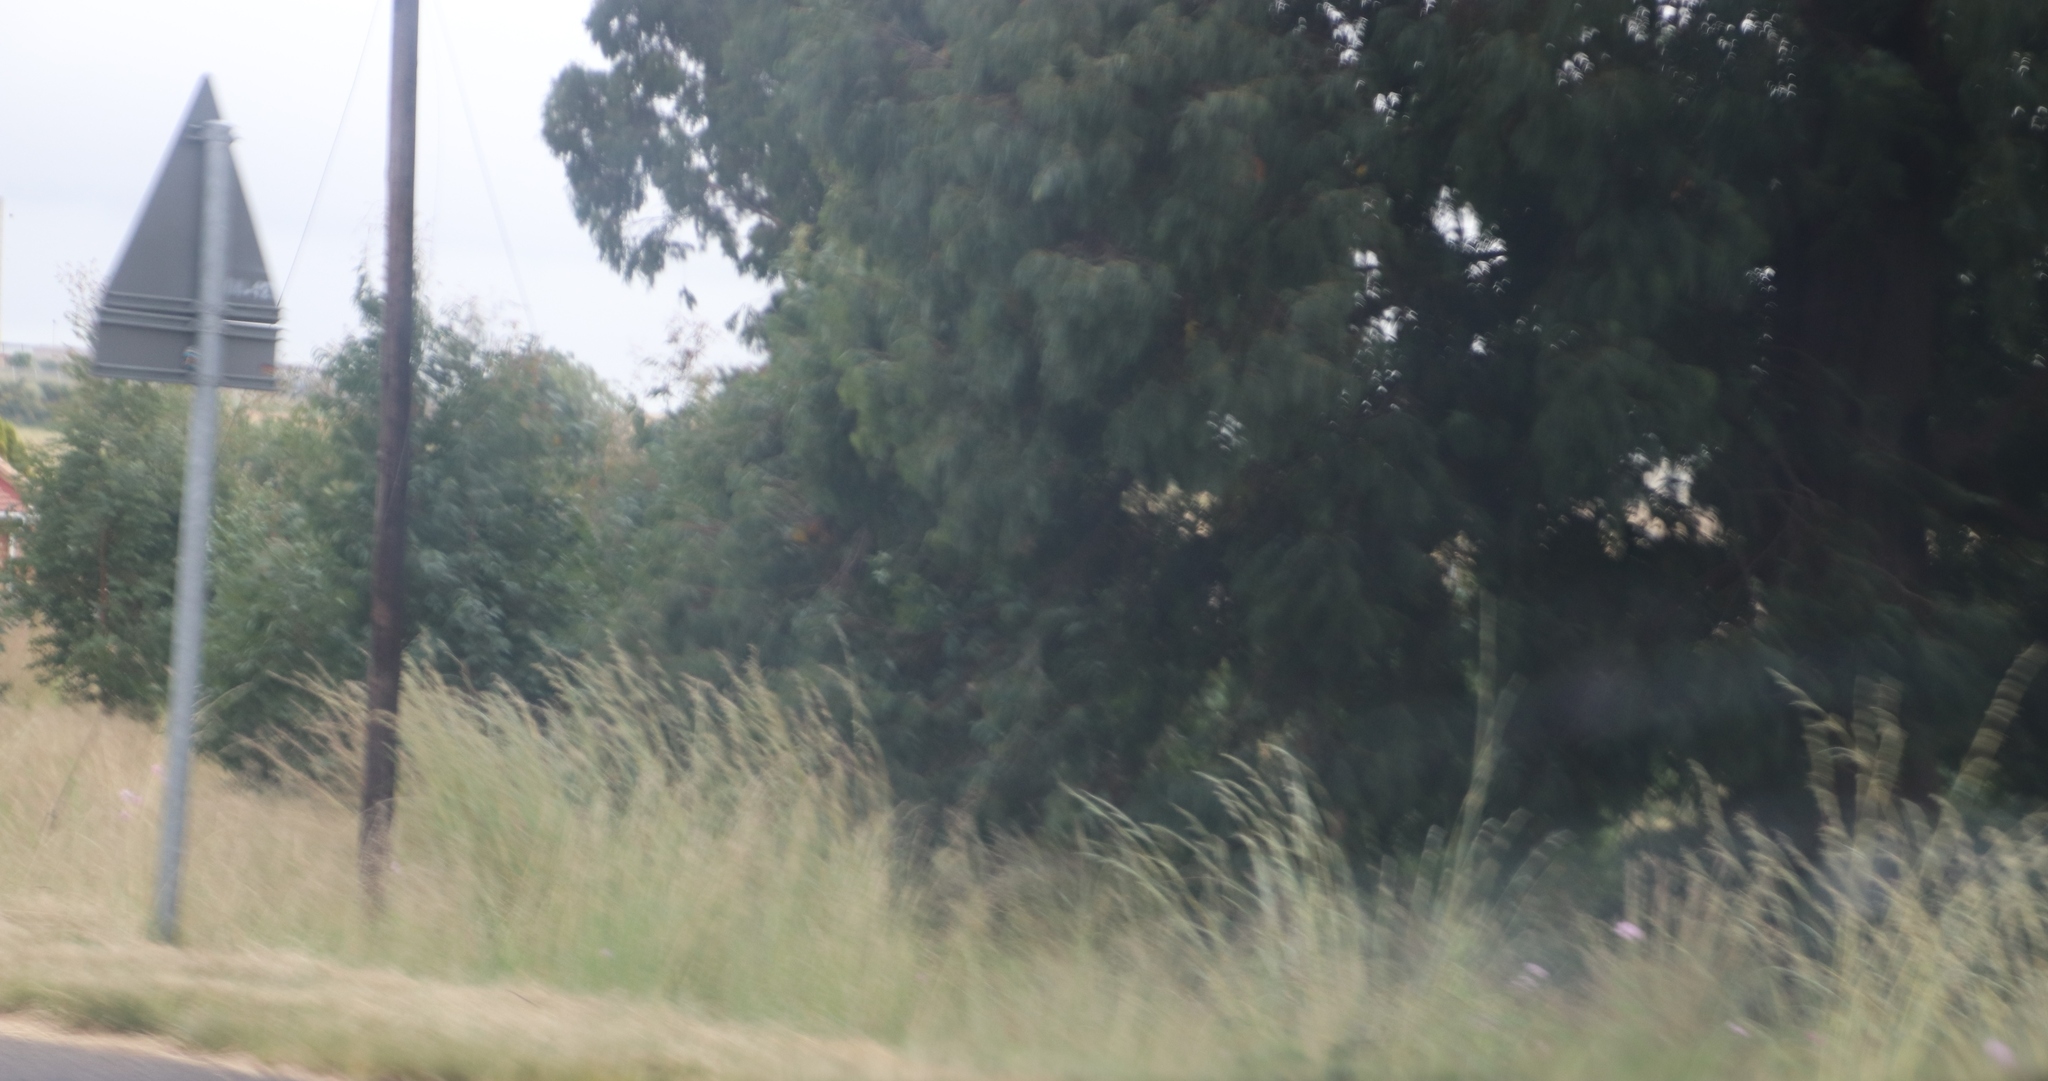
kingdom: Plantae
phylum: Tracheophyta
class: Magnoliopsida
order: Asterales
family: Asteraceae
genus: Cosmos
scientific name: Cosmos bipinnatus
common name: Garden cosmos
